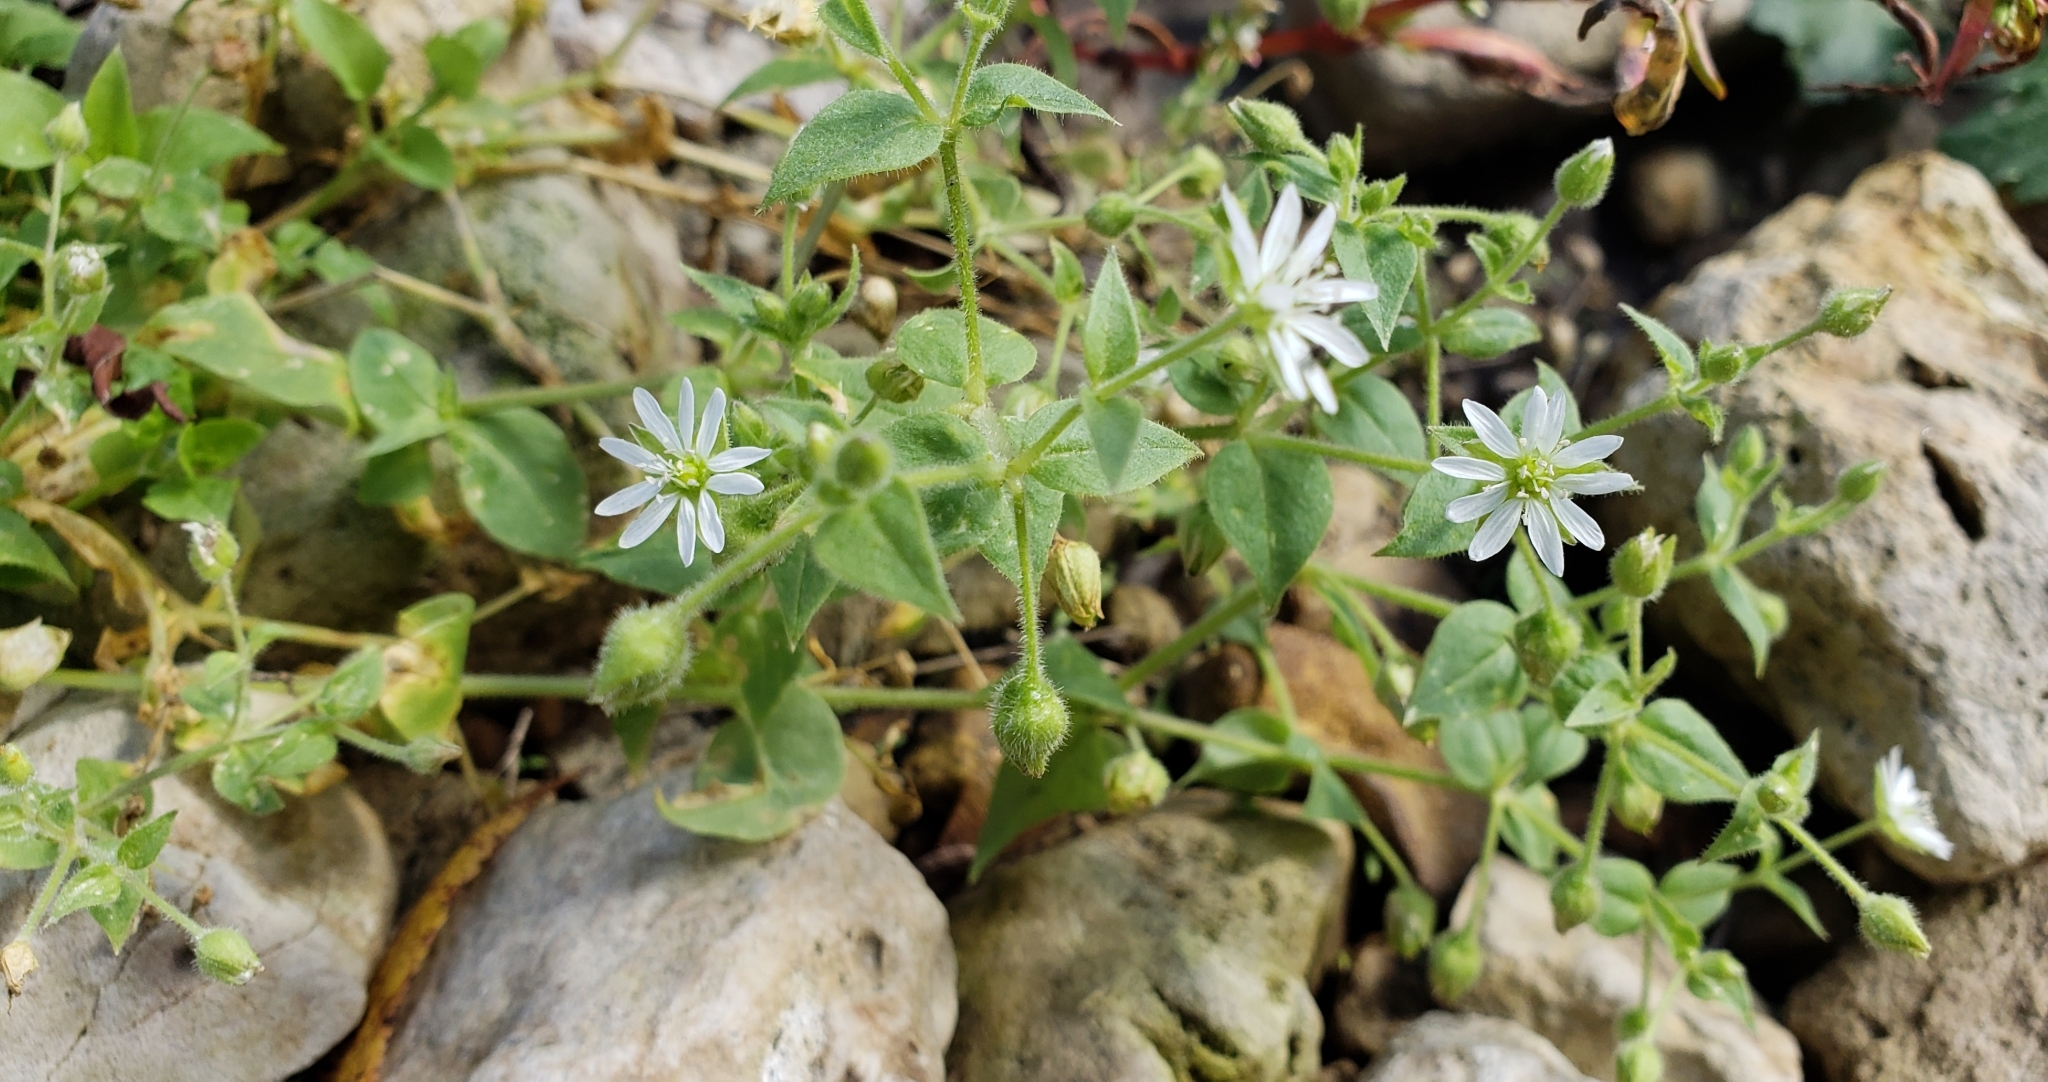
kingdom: Plantae
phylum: Tracheophyta
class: Magnoliopsida
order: Caryophyllales
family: Caryophyllaceae
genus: Stellaria
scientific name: Stellaria aquatica
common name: Water chickweed
